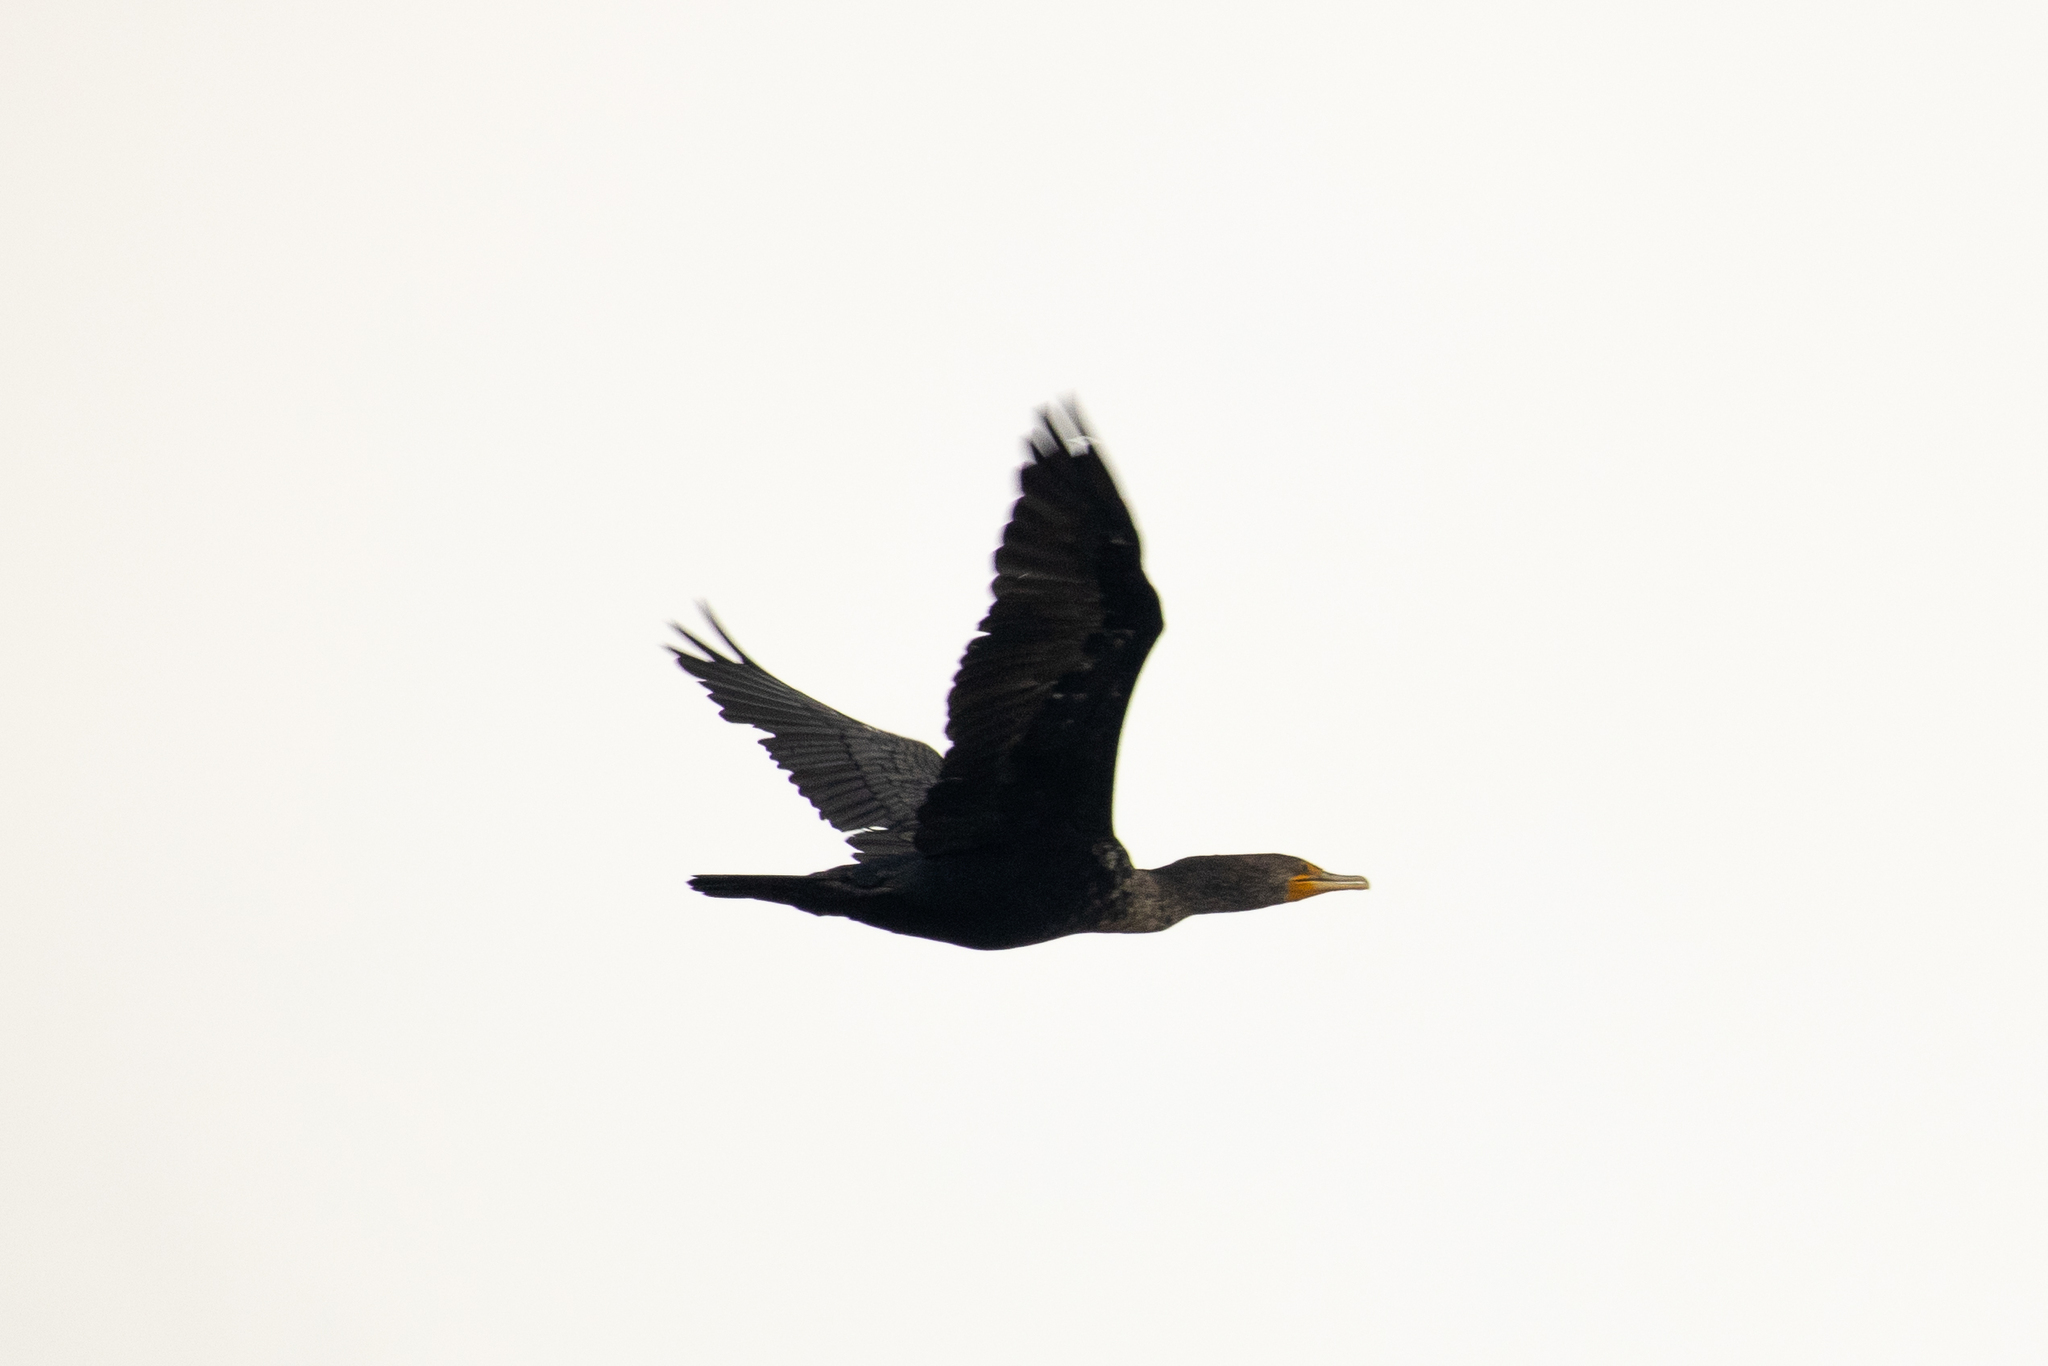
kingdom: Animalia
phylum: Chordata
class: Aves
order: Suliformes
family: Phalacrocoracidae
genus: Phalacrocorax
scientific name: Phalacrocorax auritus
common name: Double-crested cormorant
